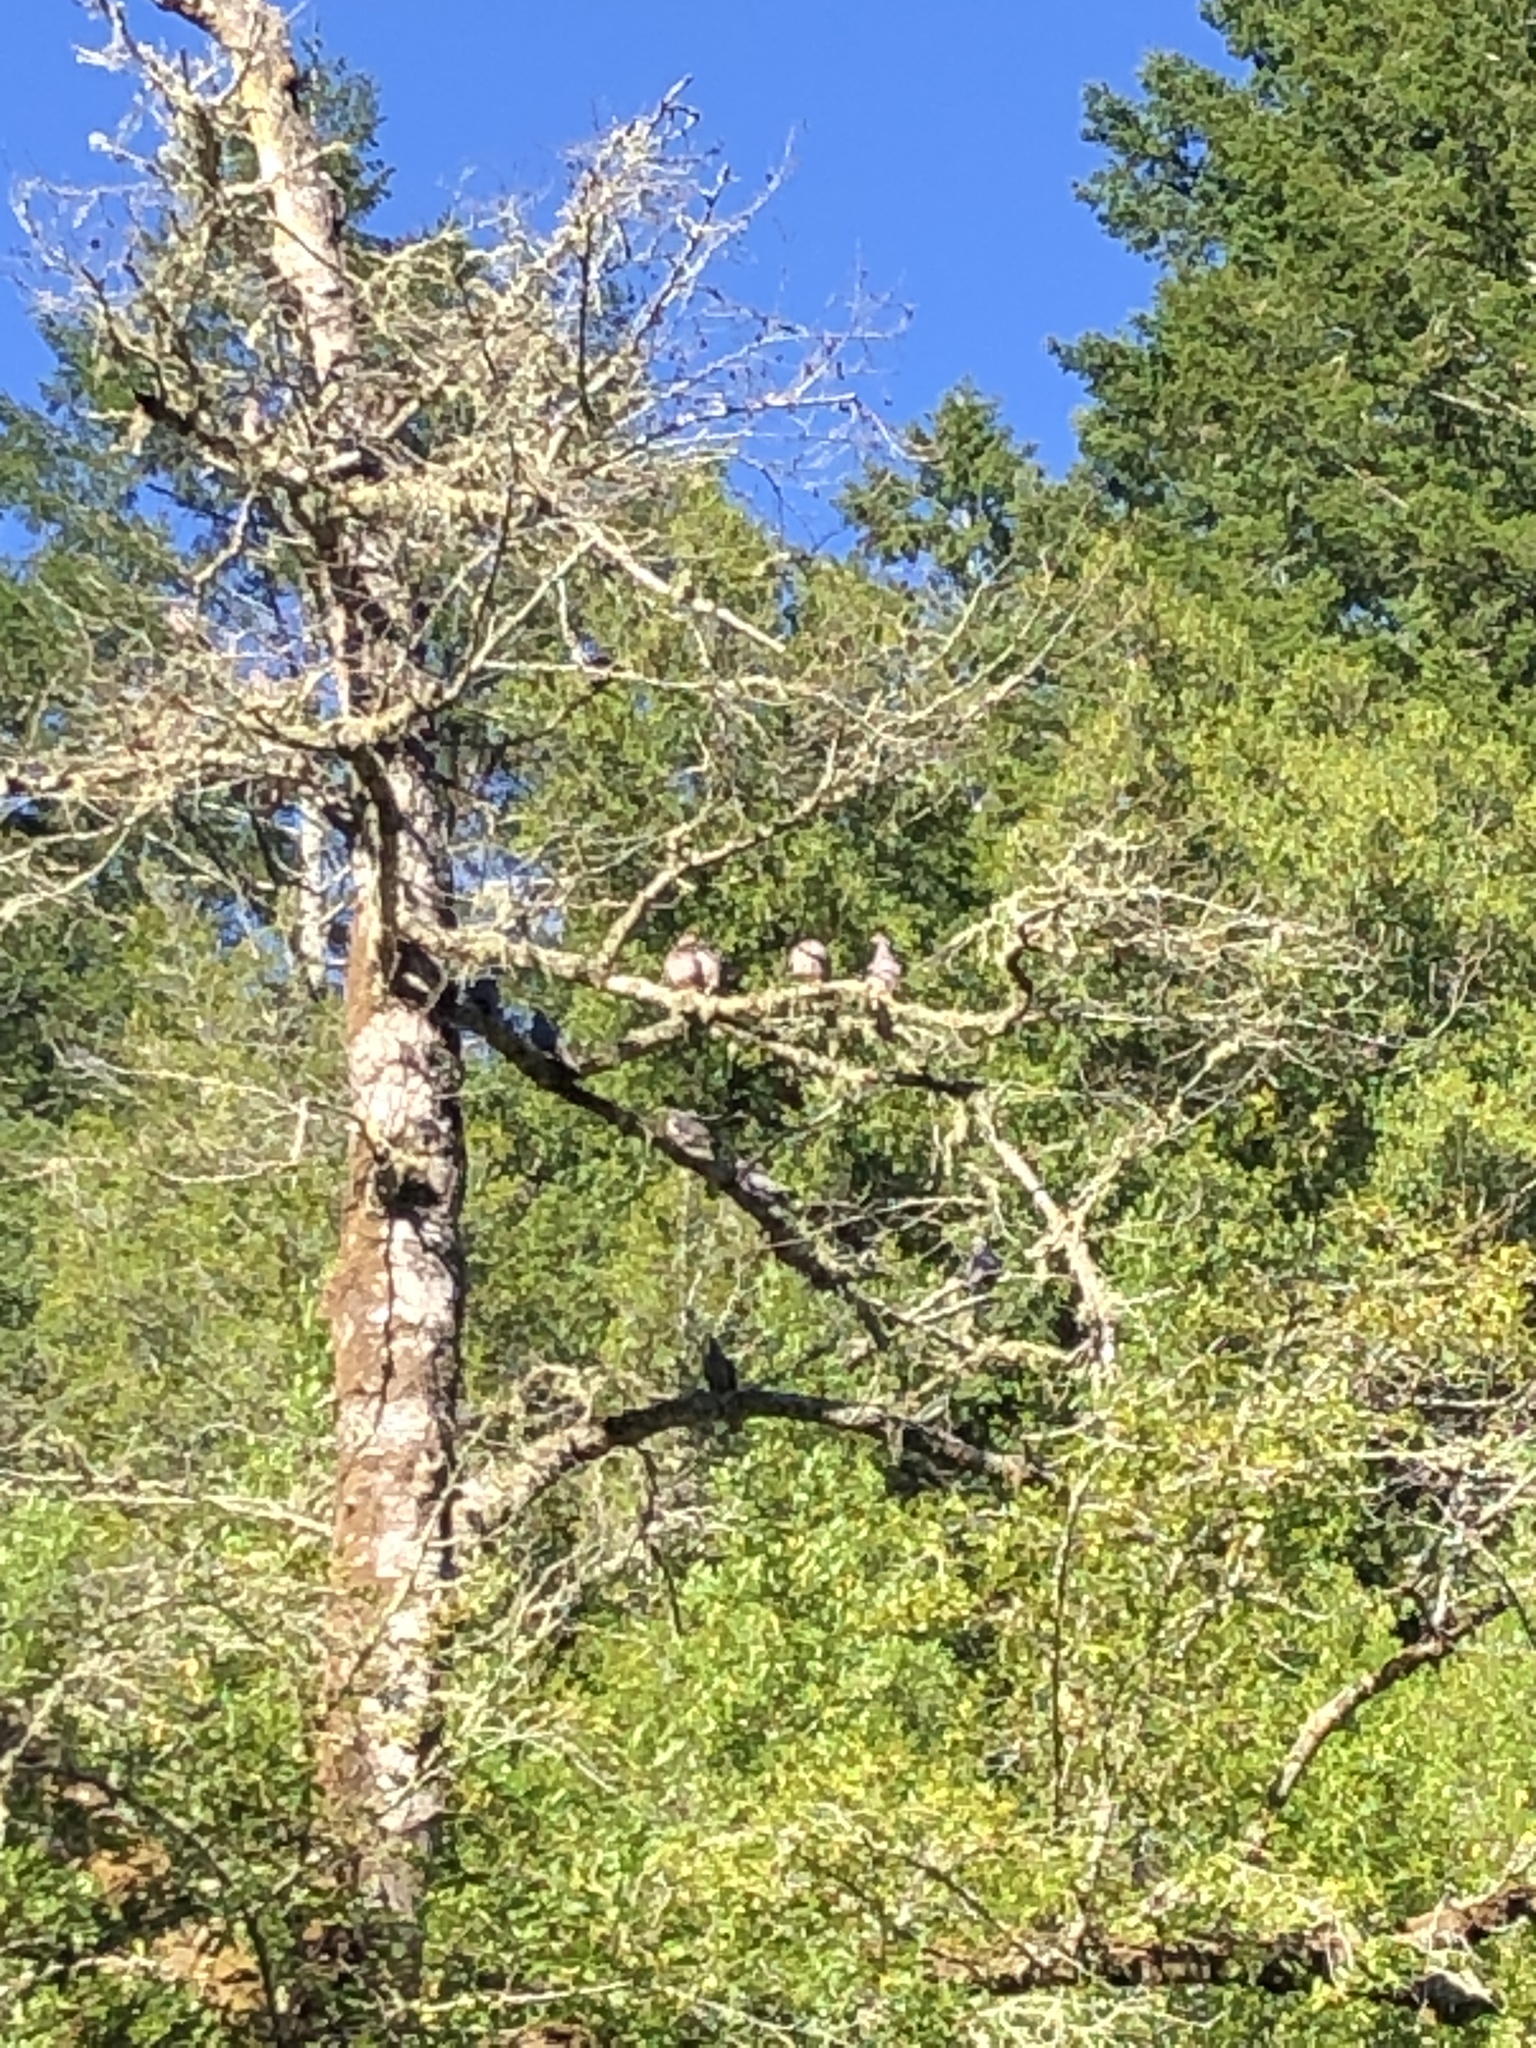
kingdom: Animalia
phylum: Chordata
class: Aves
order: Columbiformes
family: Columbidae
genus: Patagioenas
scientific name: Patagioenas fasciata
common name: Band-tailed pigeon
